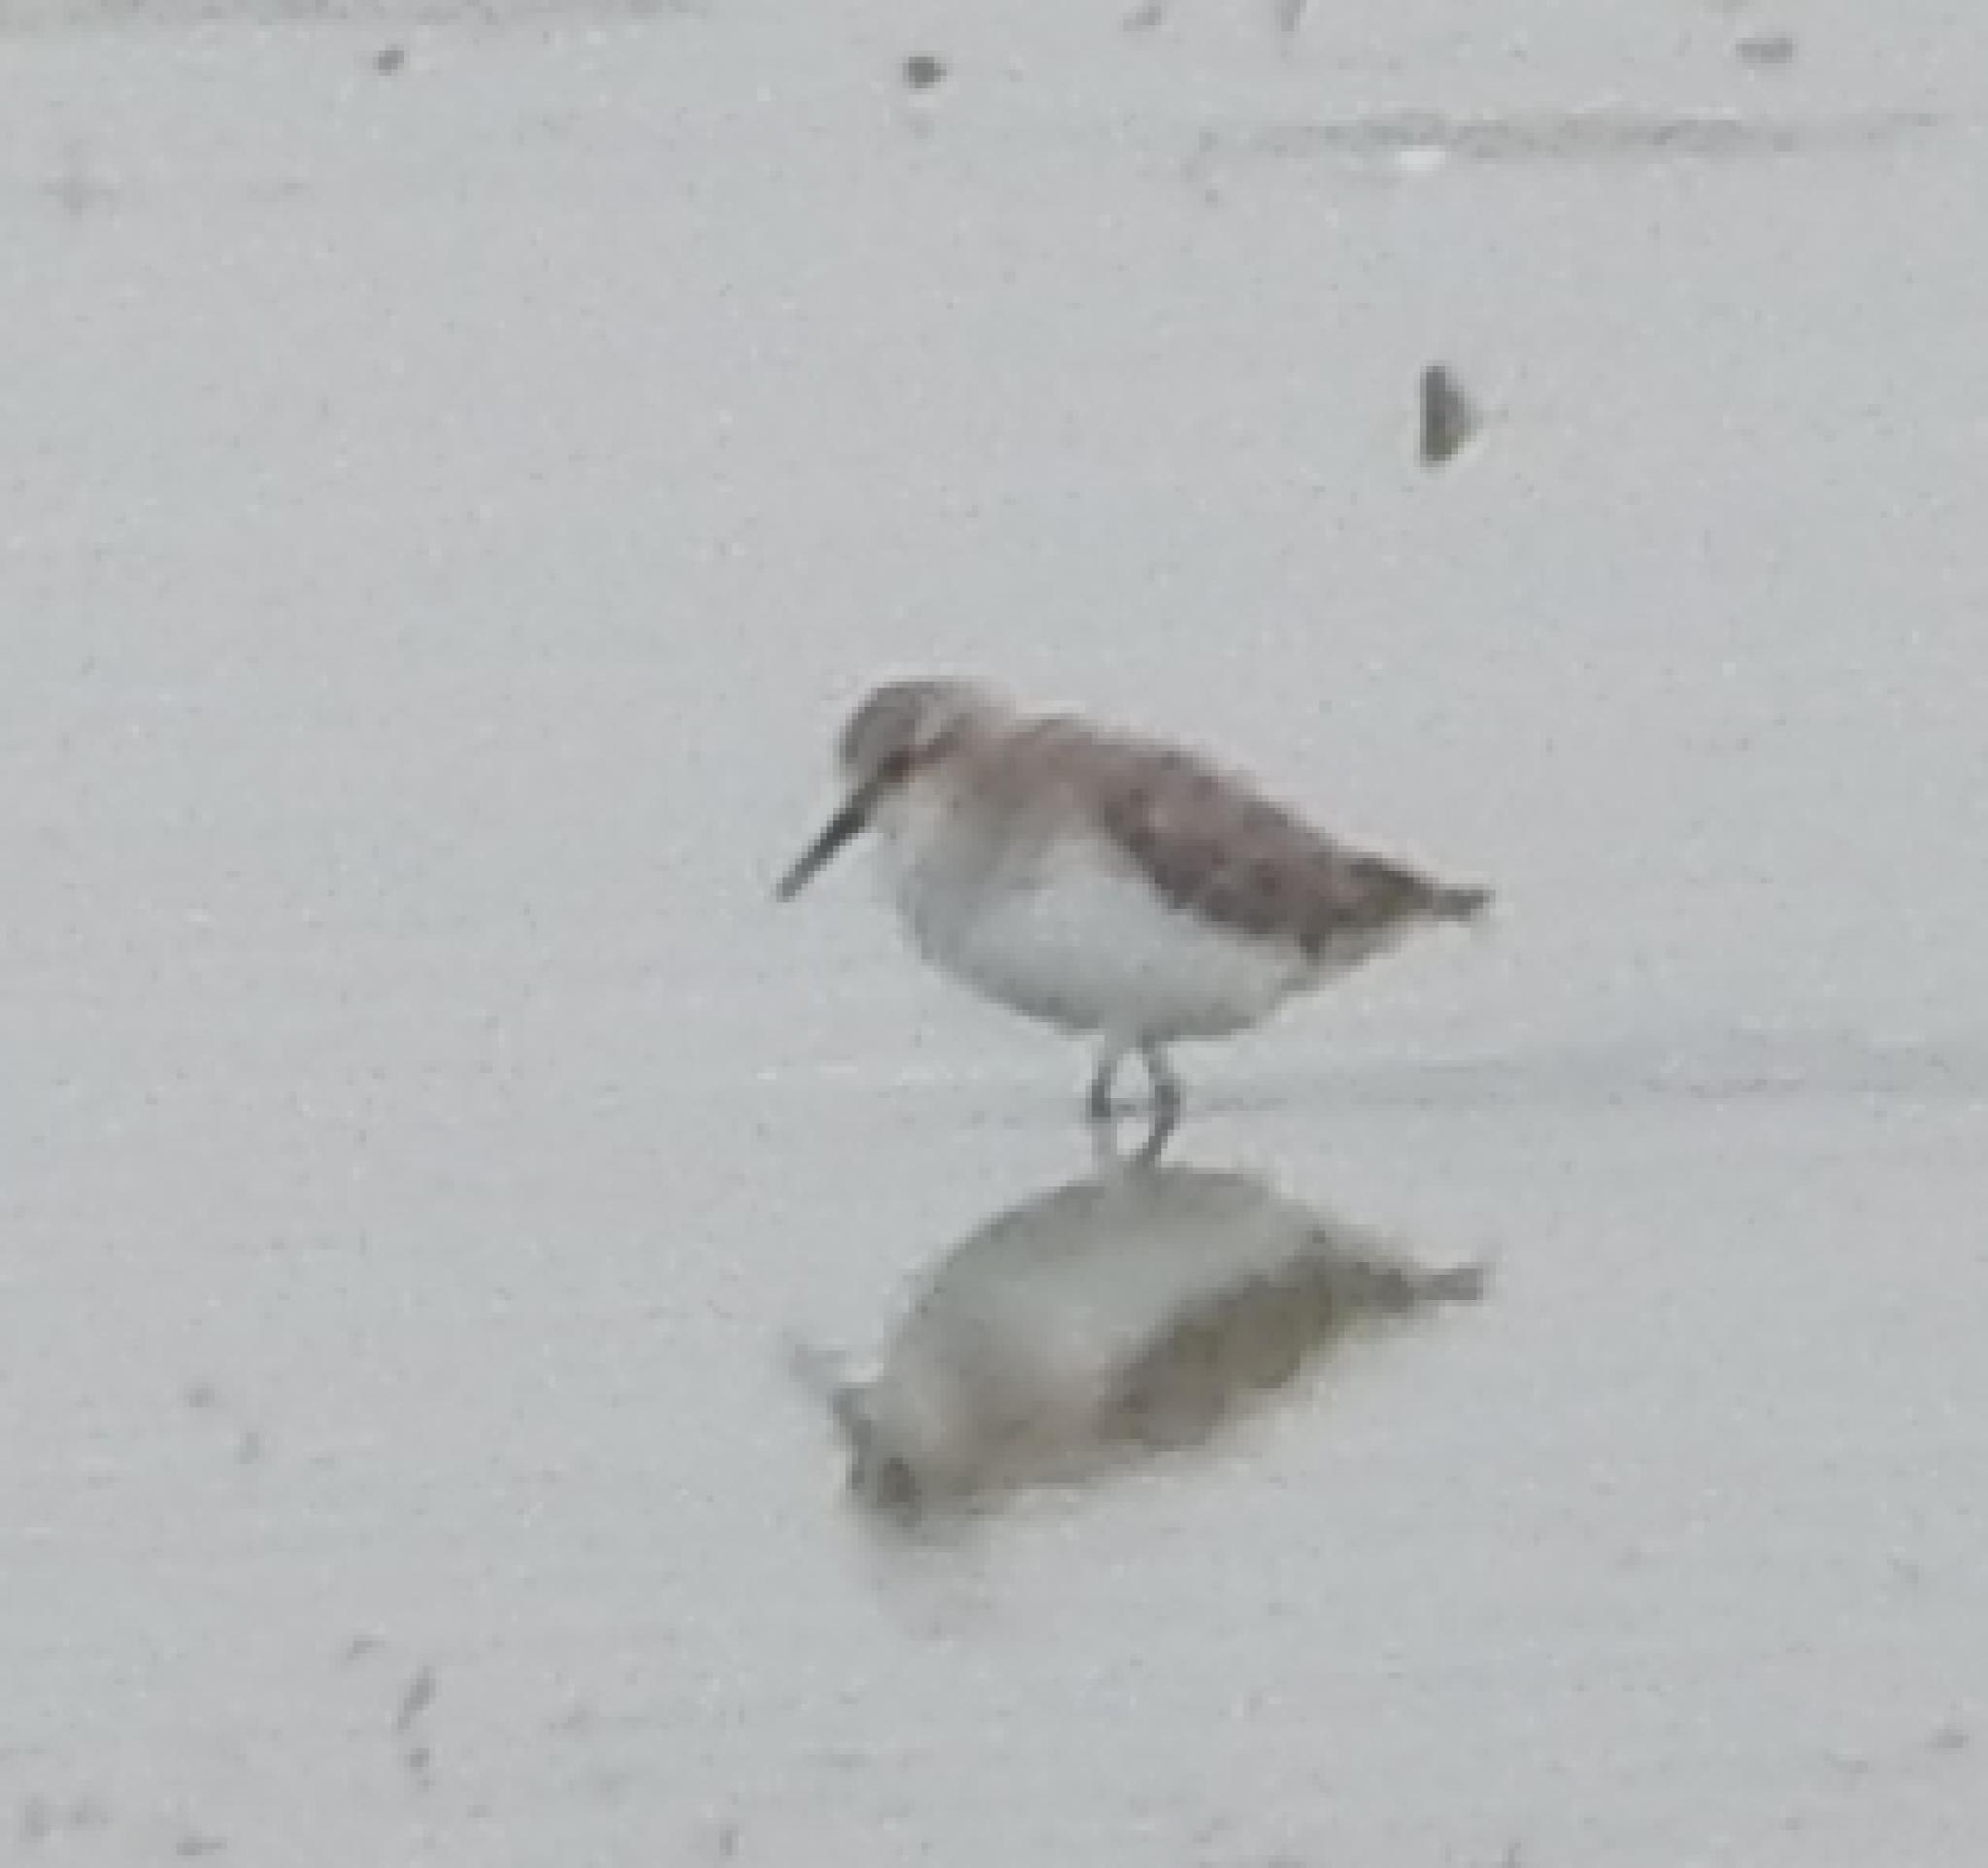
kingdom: Animalia
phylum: Chordata
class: Aves
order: Charadriiformes
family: Scolopacidae
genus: Calidris
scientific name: Calidris minuta
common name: Little stint
